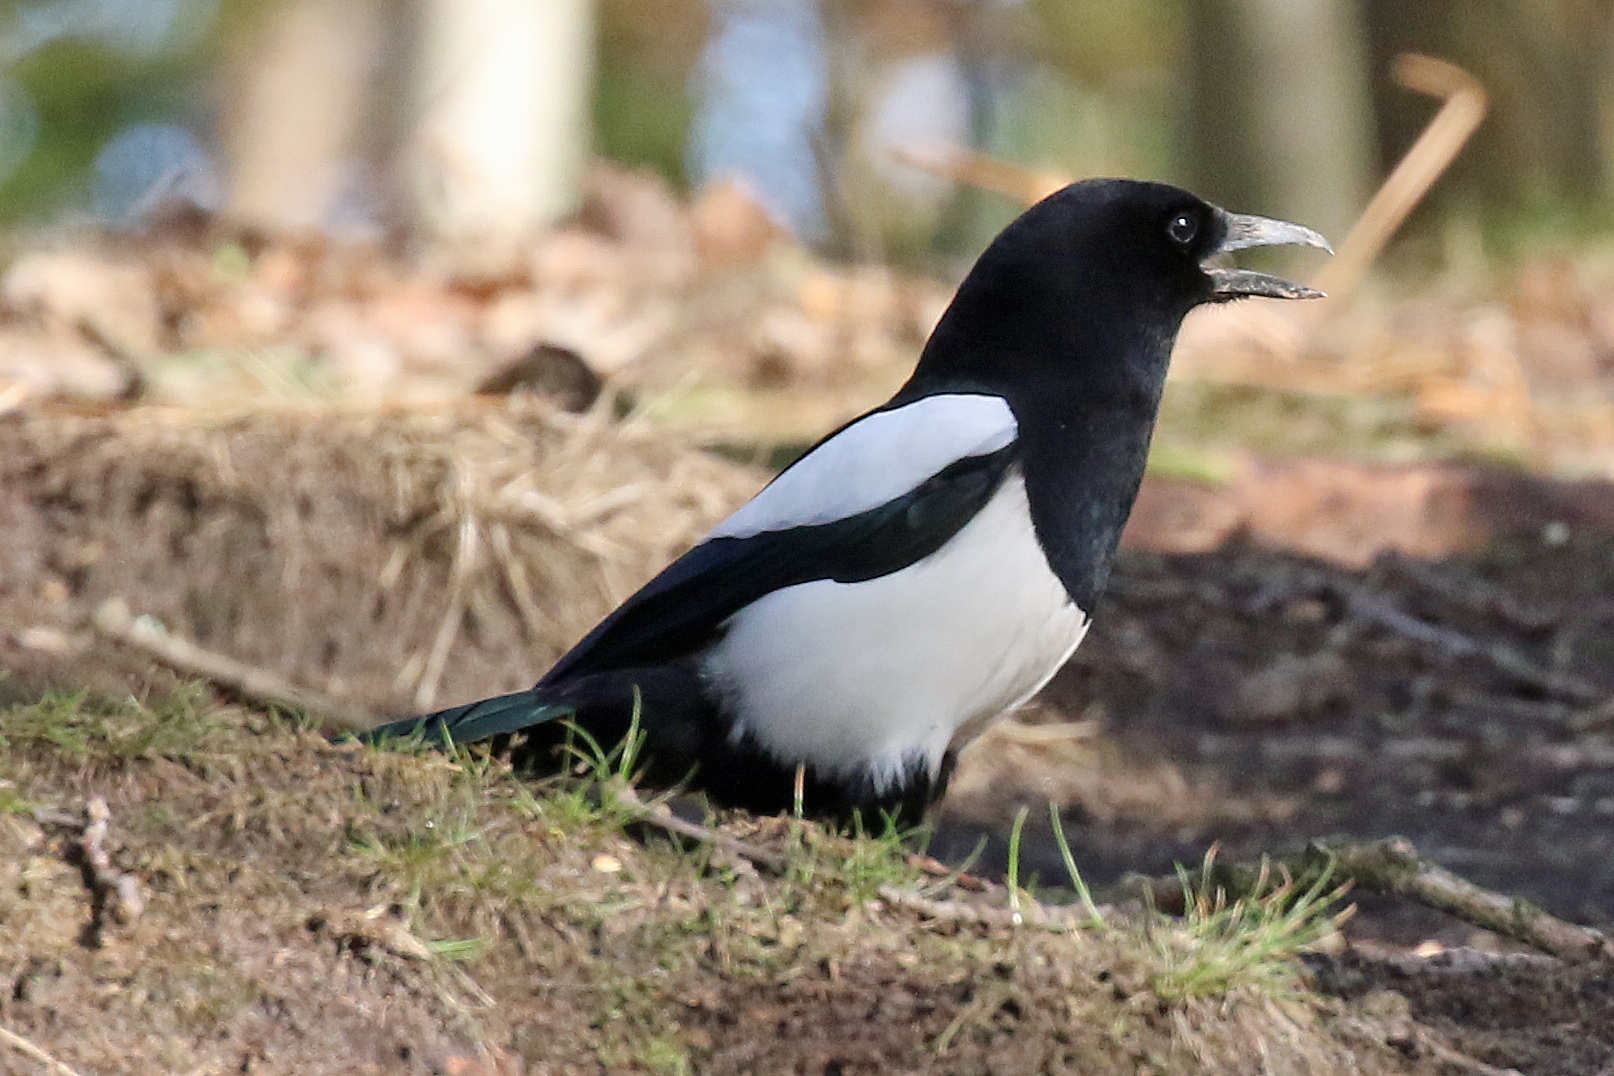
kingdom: Animalia
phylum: Chordata
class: Aves
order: Passeriformes
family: Corvidae
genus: Pica
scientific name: Pica pica
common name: Eurasian magpie
